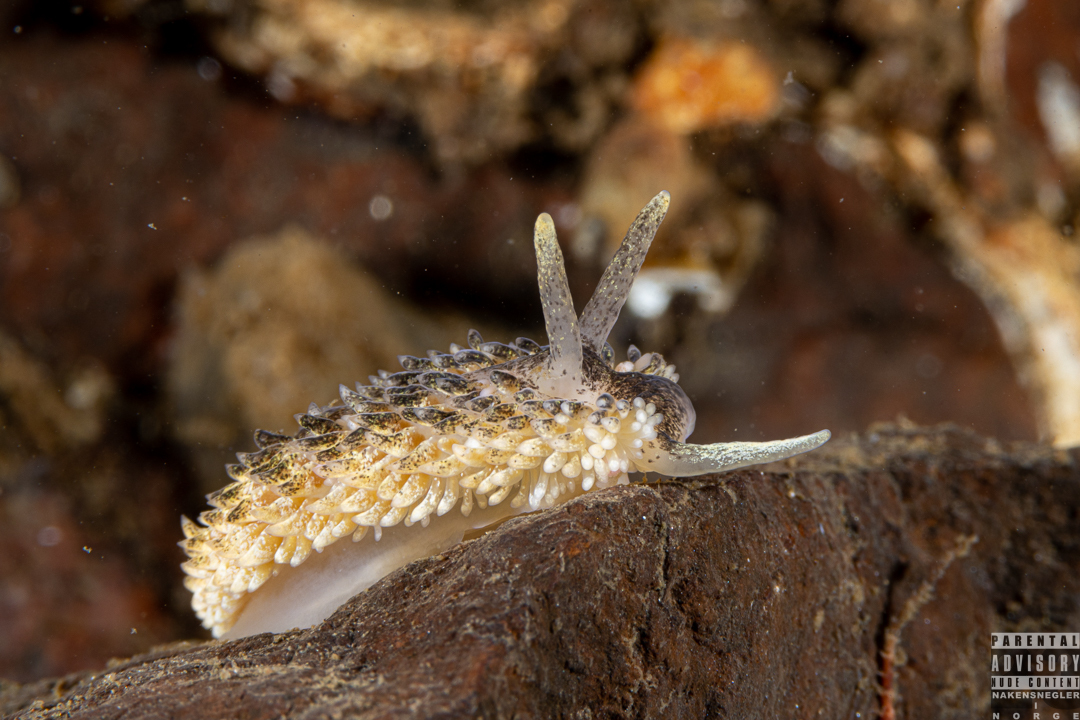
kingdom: Animalia
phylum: Mollusca
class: Gastropoda
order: Nudibranchia
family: Aeolidiidae
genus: Aeolidia
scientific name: Aeolidia papillosa
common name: Common grey sea slug
